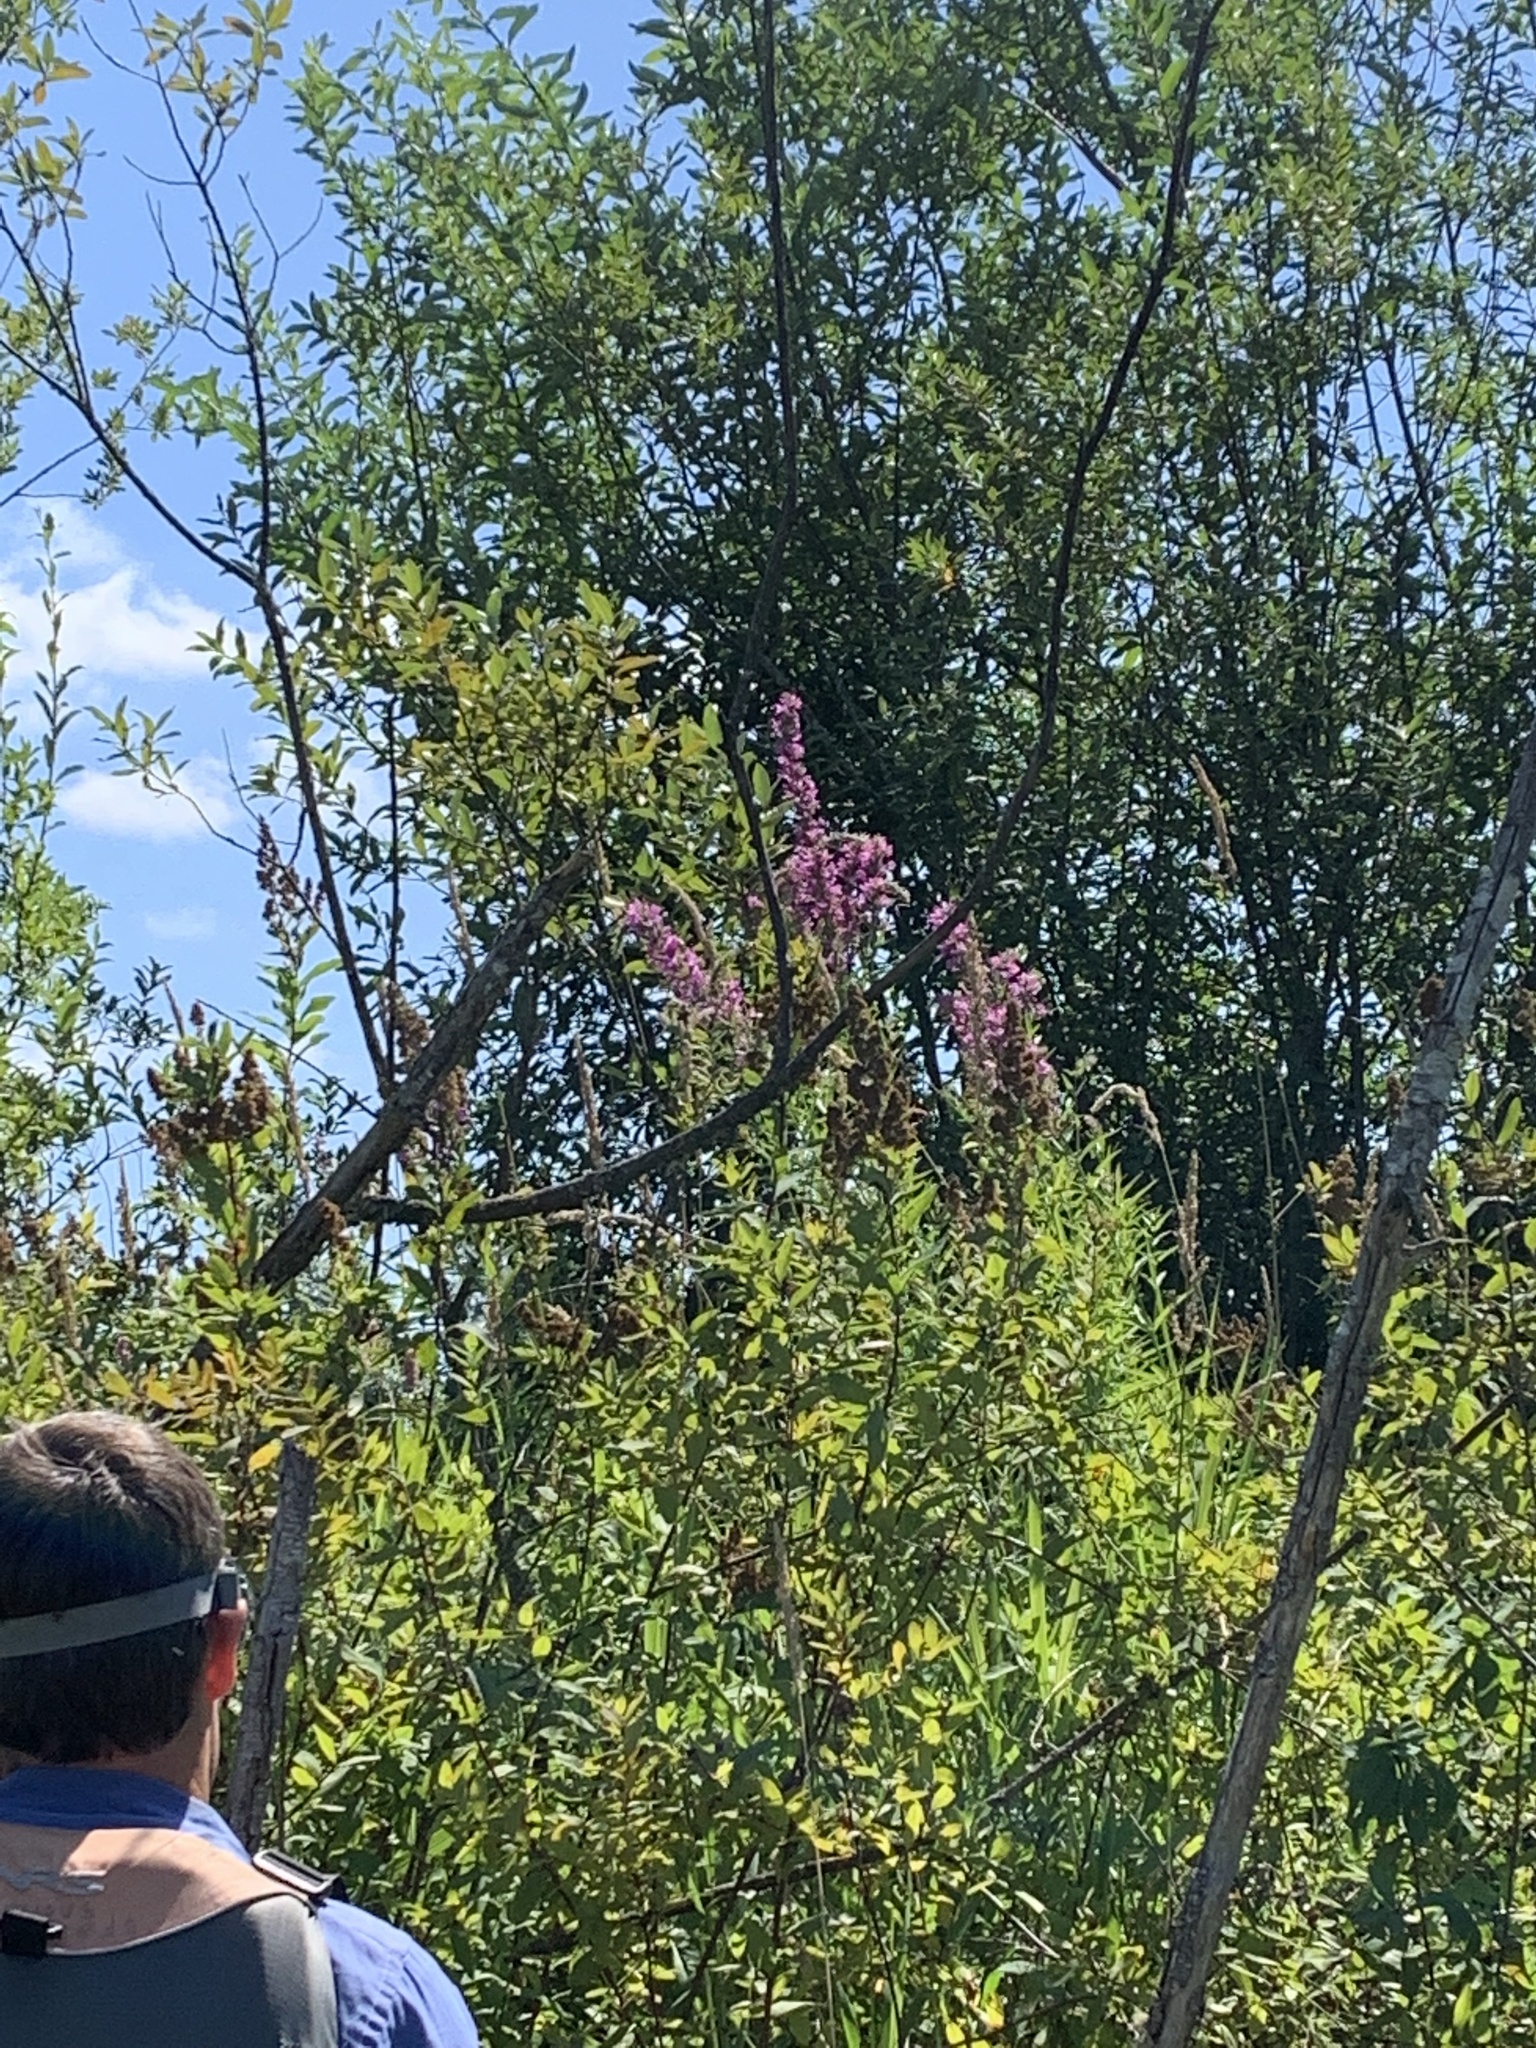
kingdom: Plantae
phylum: Tracheophyta
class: Magnoliopsida
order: Myrtales
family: Lythraceae
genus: Lythrum
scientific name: Lythrum salicaria
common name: Purple loosestrife
